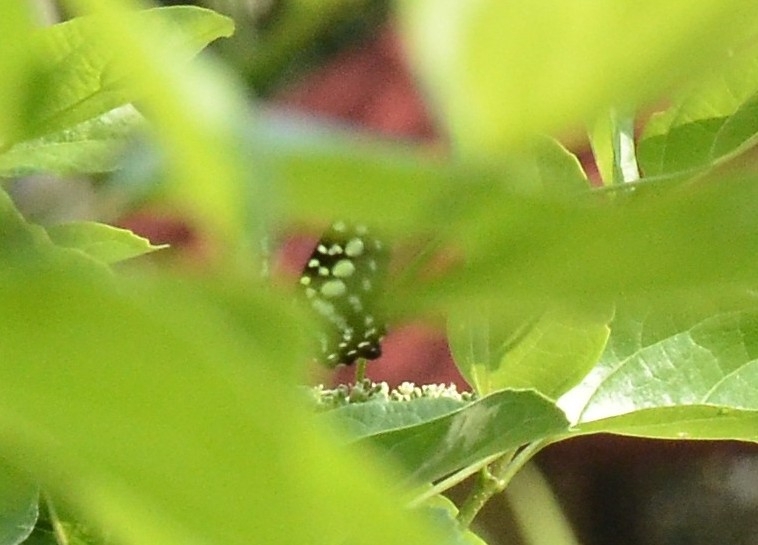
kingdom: Animalia
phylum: Arthropoda
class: Insecta
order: Lepidoptera
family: Papilionidae
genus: Graphium
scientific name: Graphium agamemnon
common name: Tailed jay
